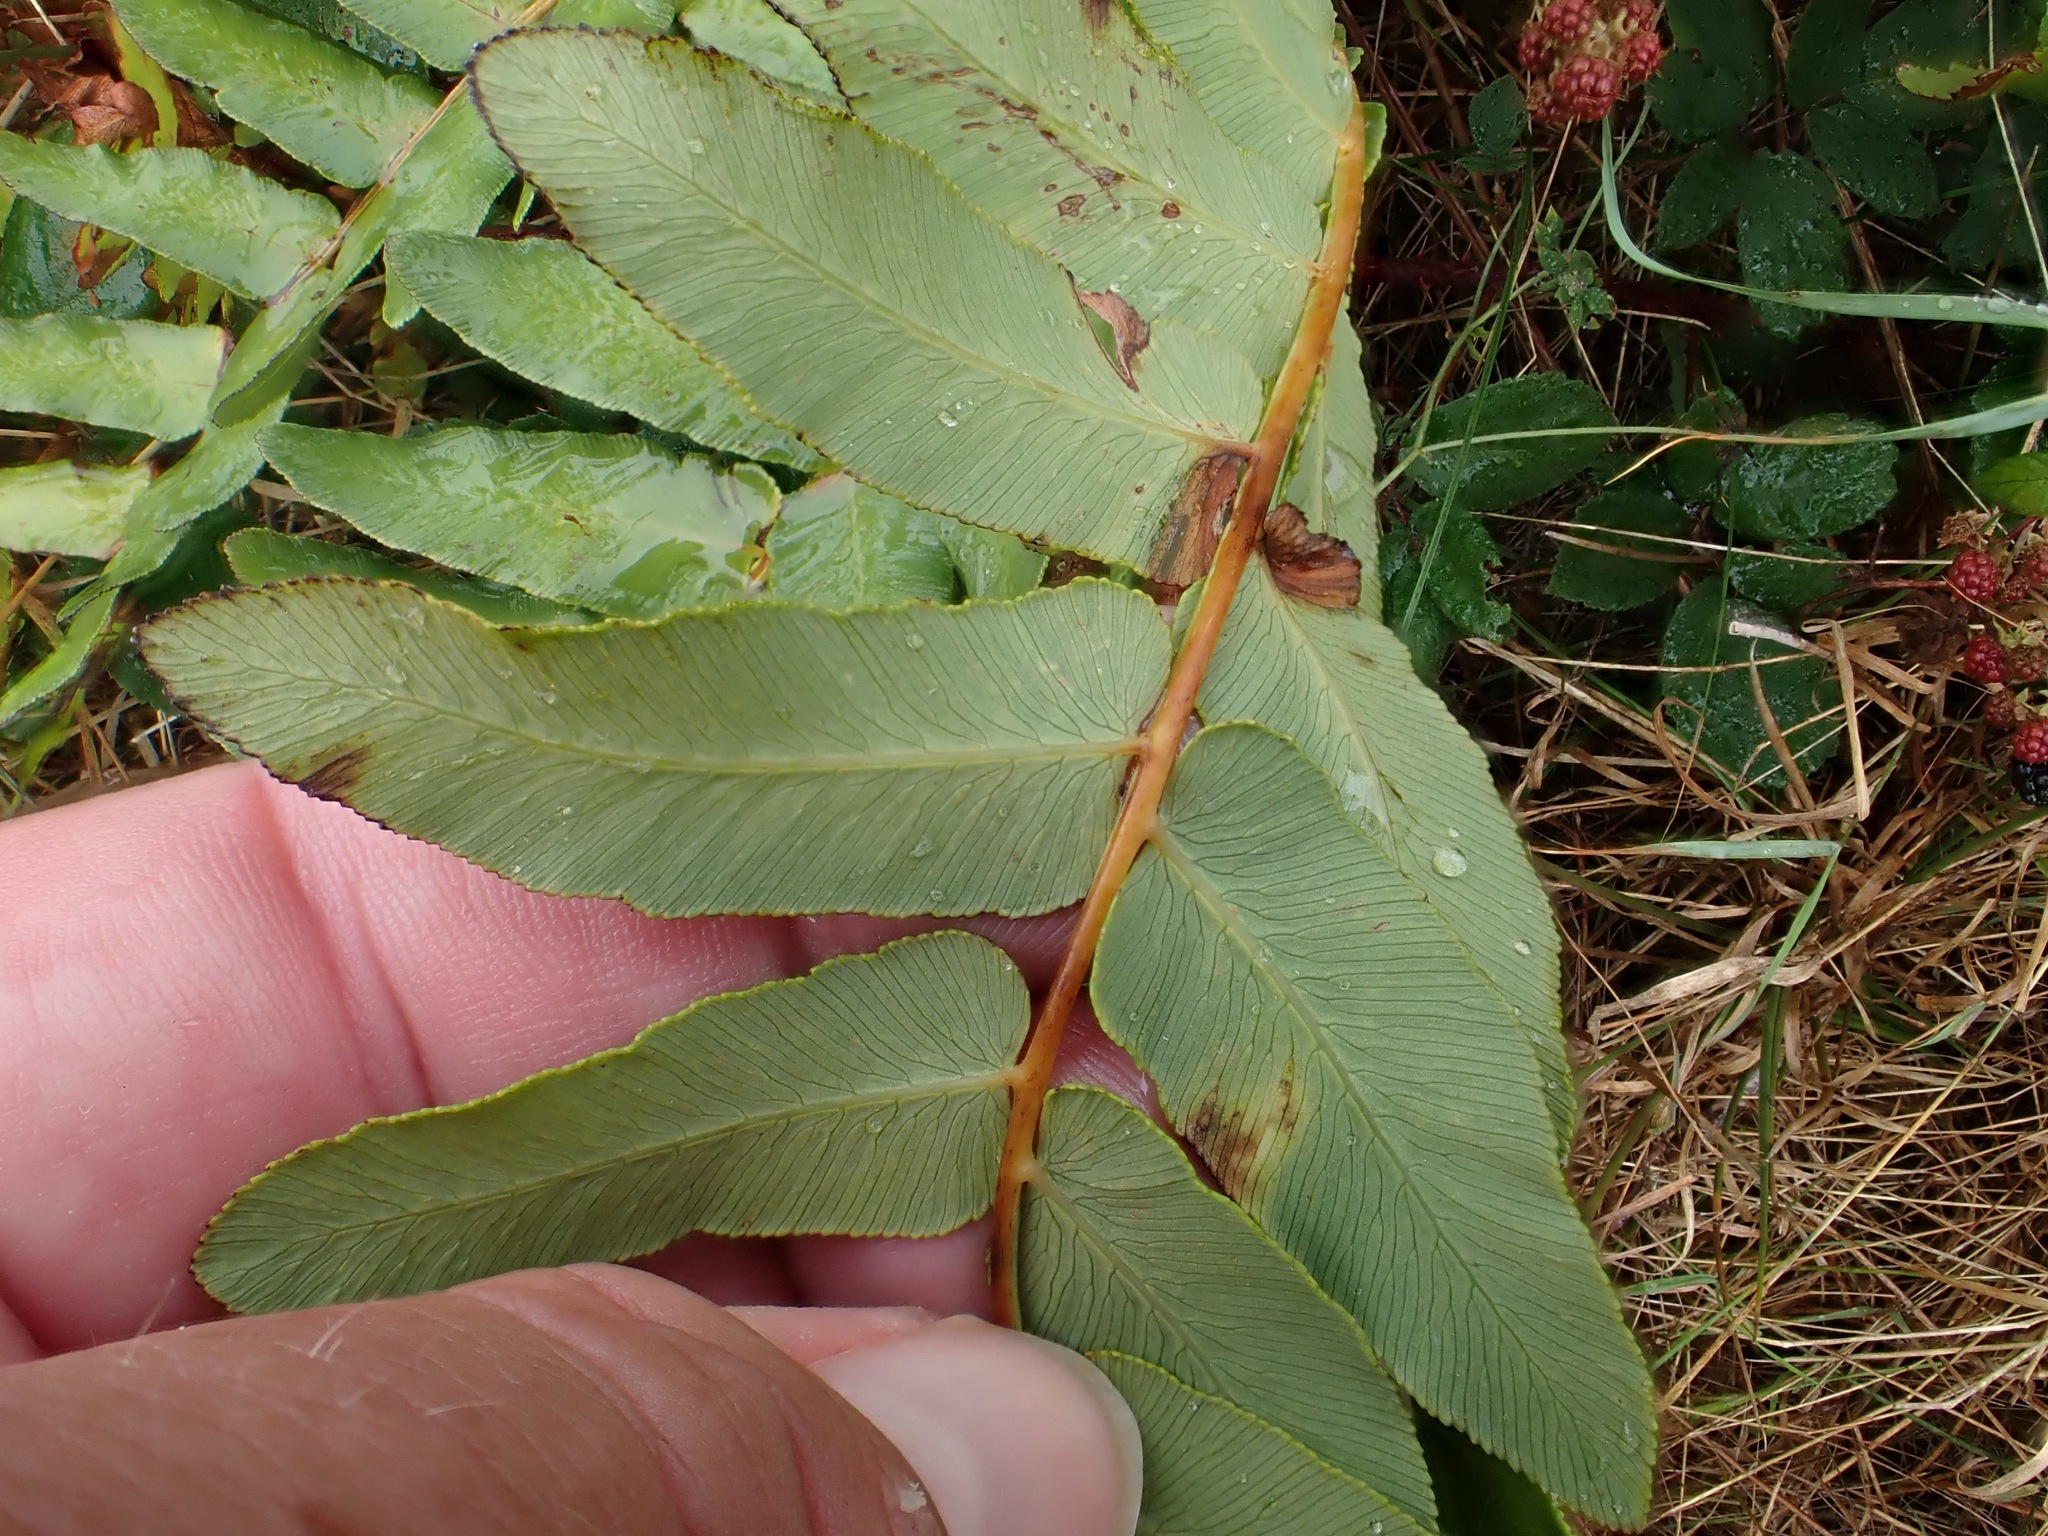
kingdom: Plantae
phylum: Tracheophyta
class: Polypodiopsida
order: Osmundales
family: Osmundaceae
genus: Osmunda
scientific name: Osmunda regalis
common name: Royal fern
